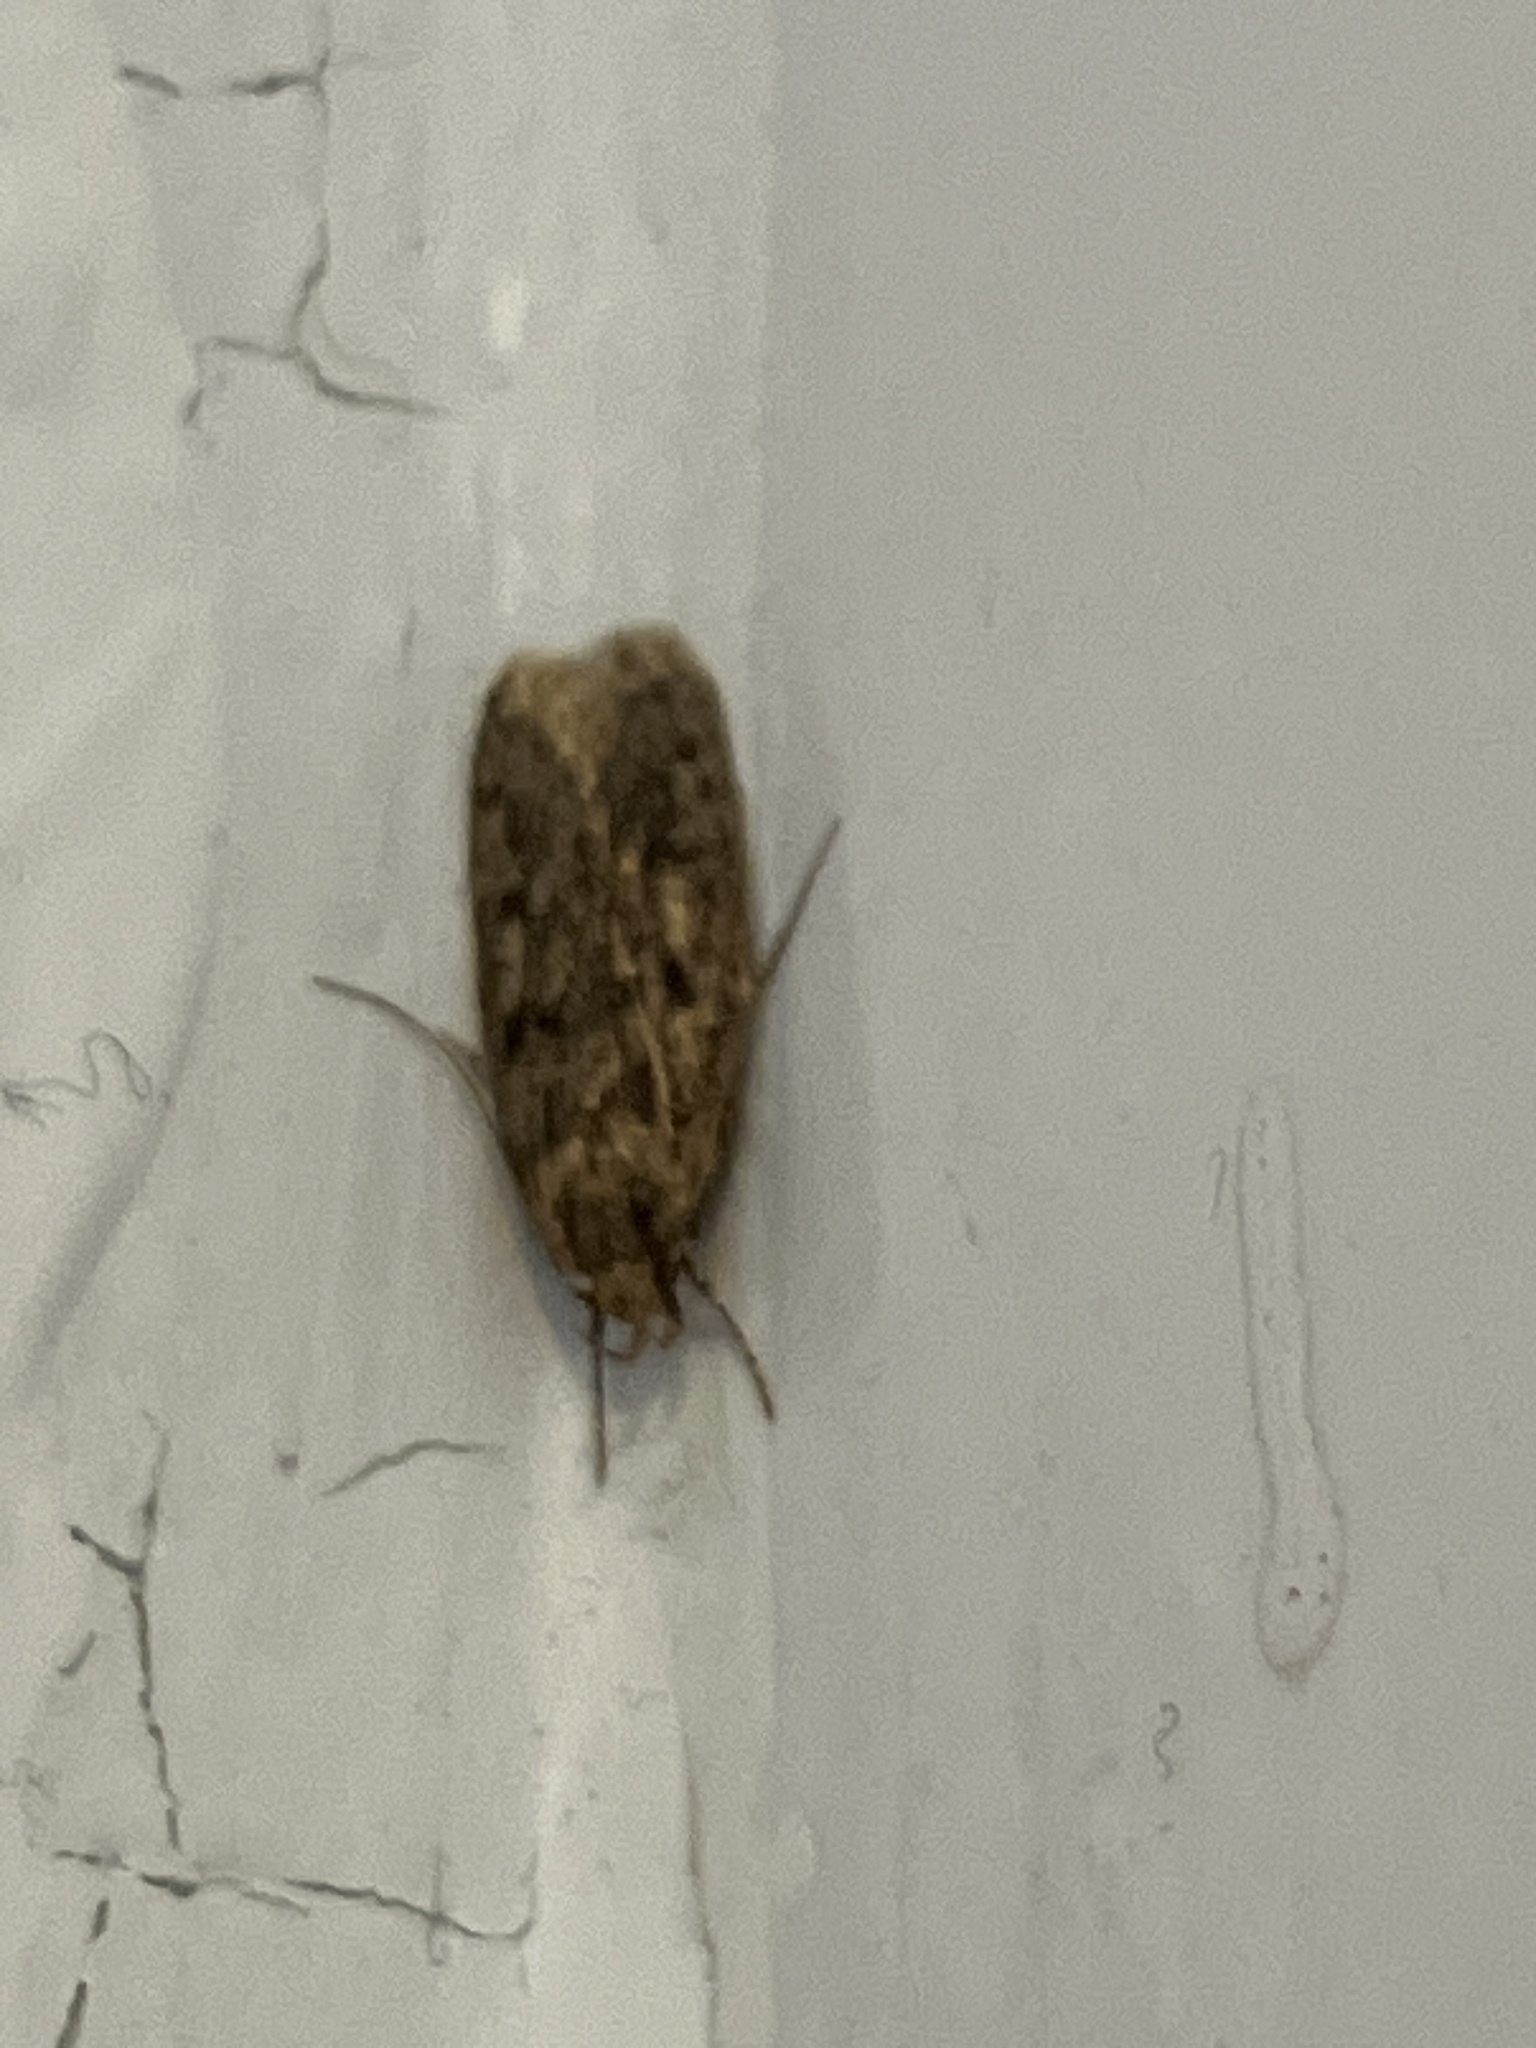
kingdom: Animalia
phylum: Arthropoda
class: Insecta
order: Lepidoptera
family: Oecophoridae
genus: Hofmannophila
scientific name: Hofmannophila pseudospretella
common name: Brown house moth
